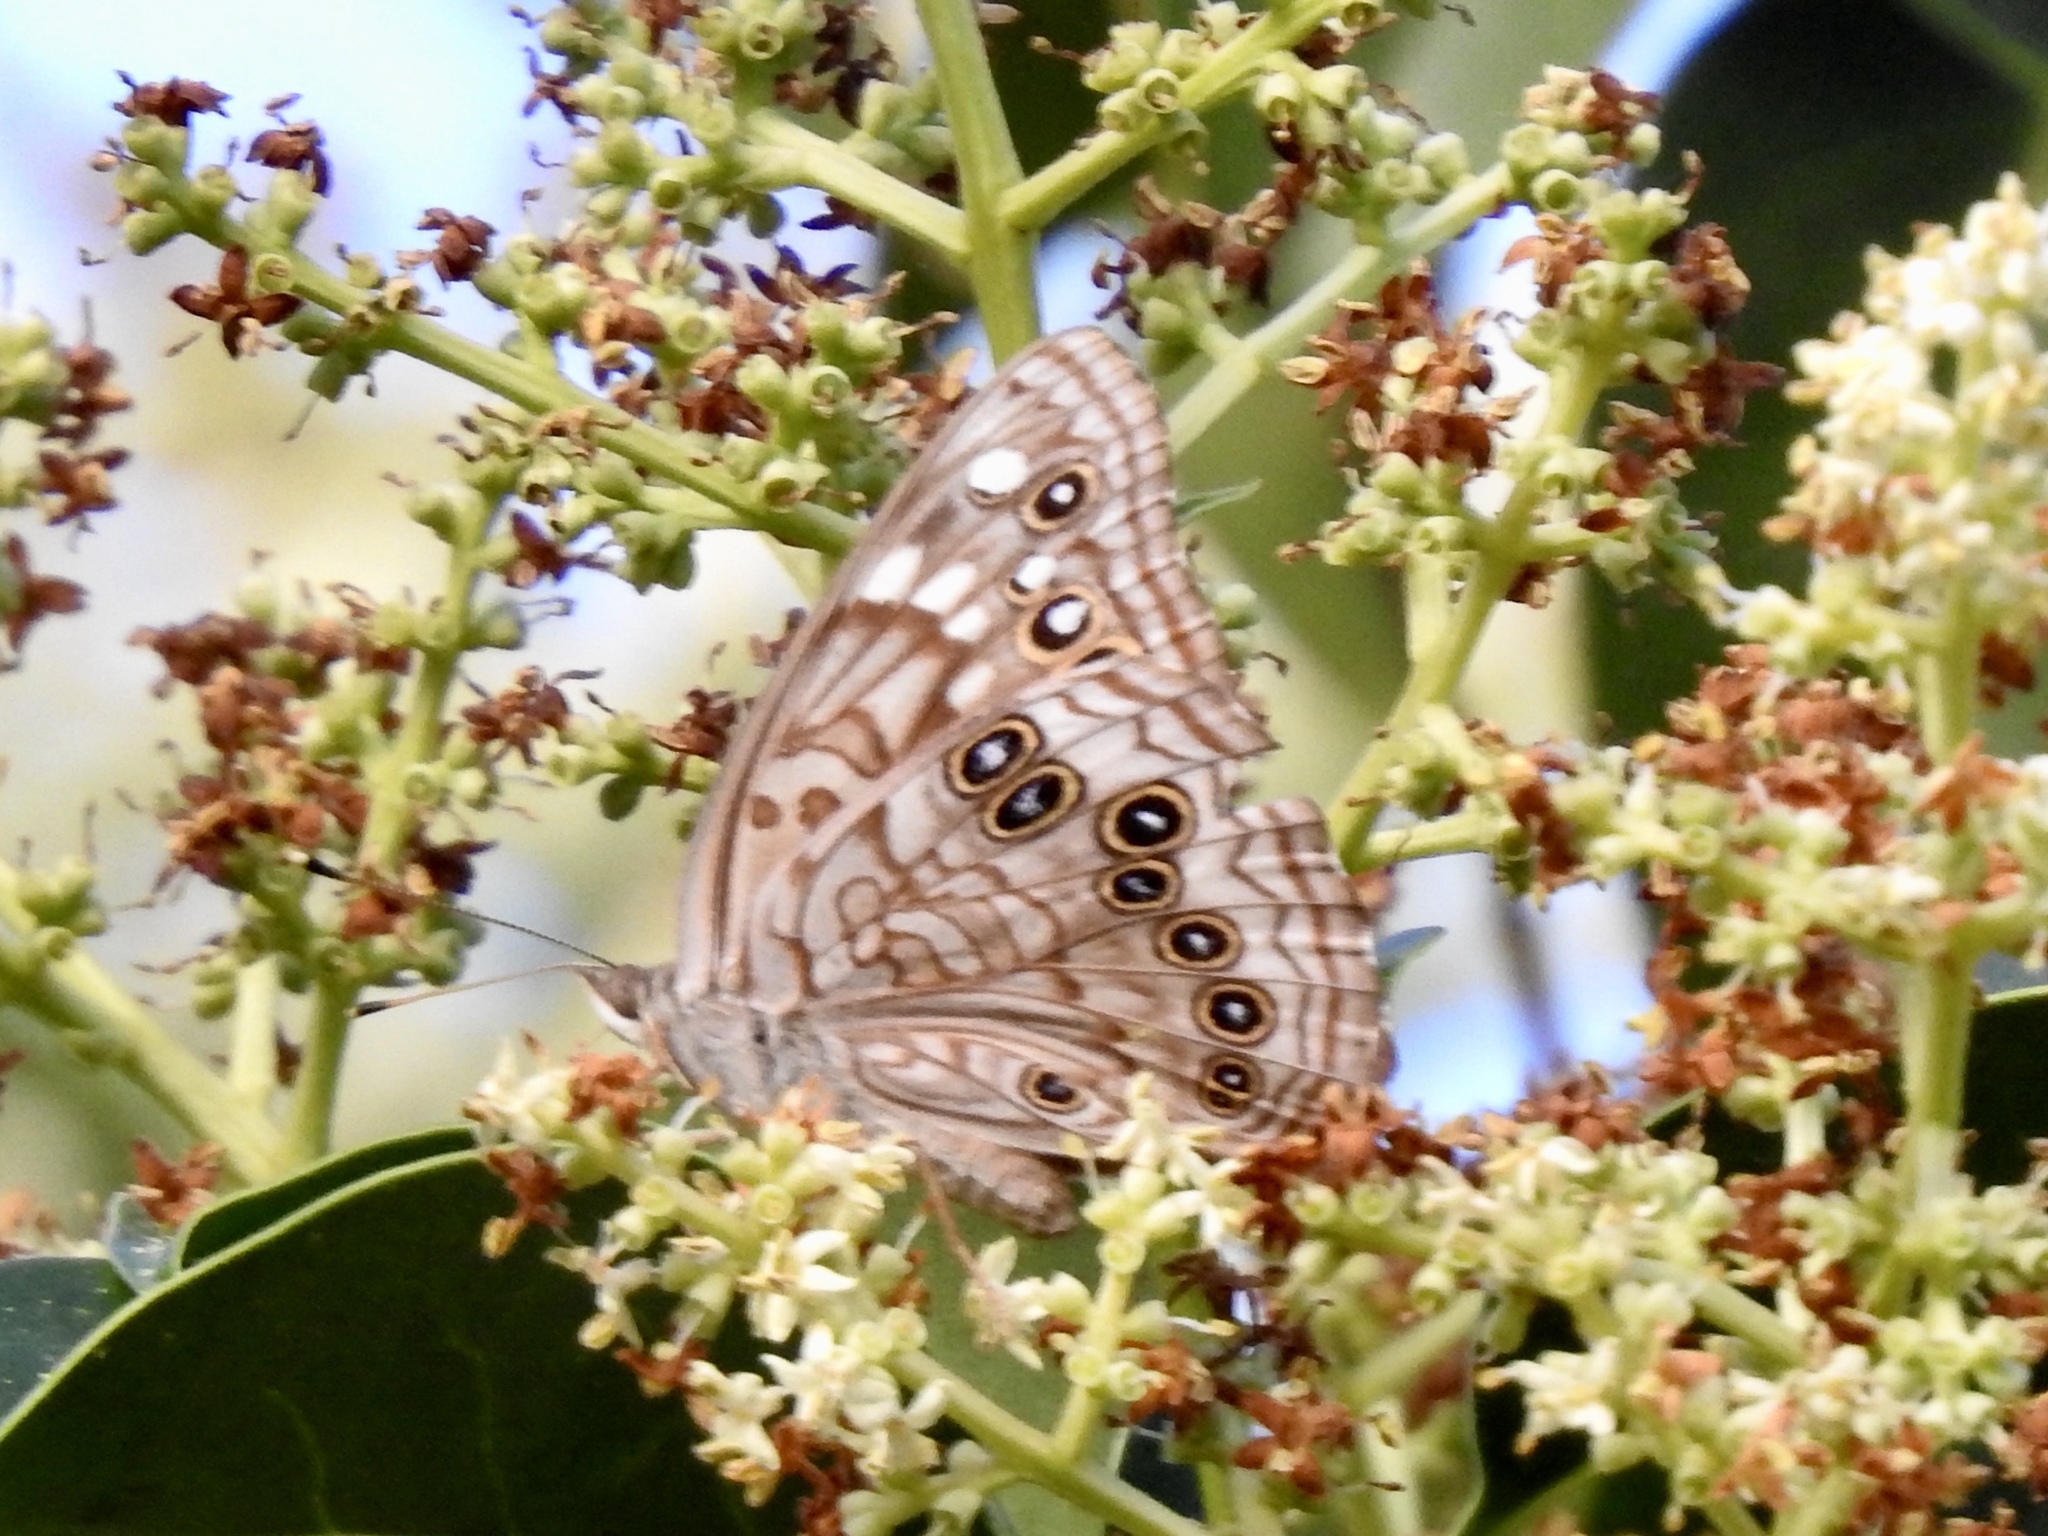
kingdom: Animalia
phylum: Arthropoda
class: Insecta
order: Lepidoptera
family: Nymphalidae
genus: Asterocampa
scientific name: Asterocampa celtis
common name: Hackberry emperor
